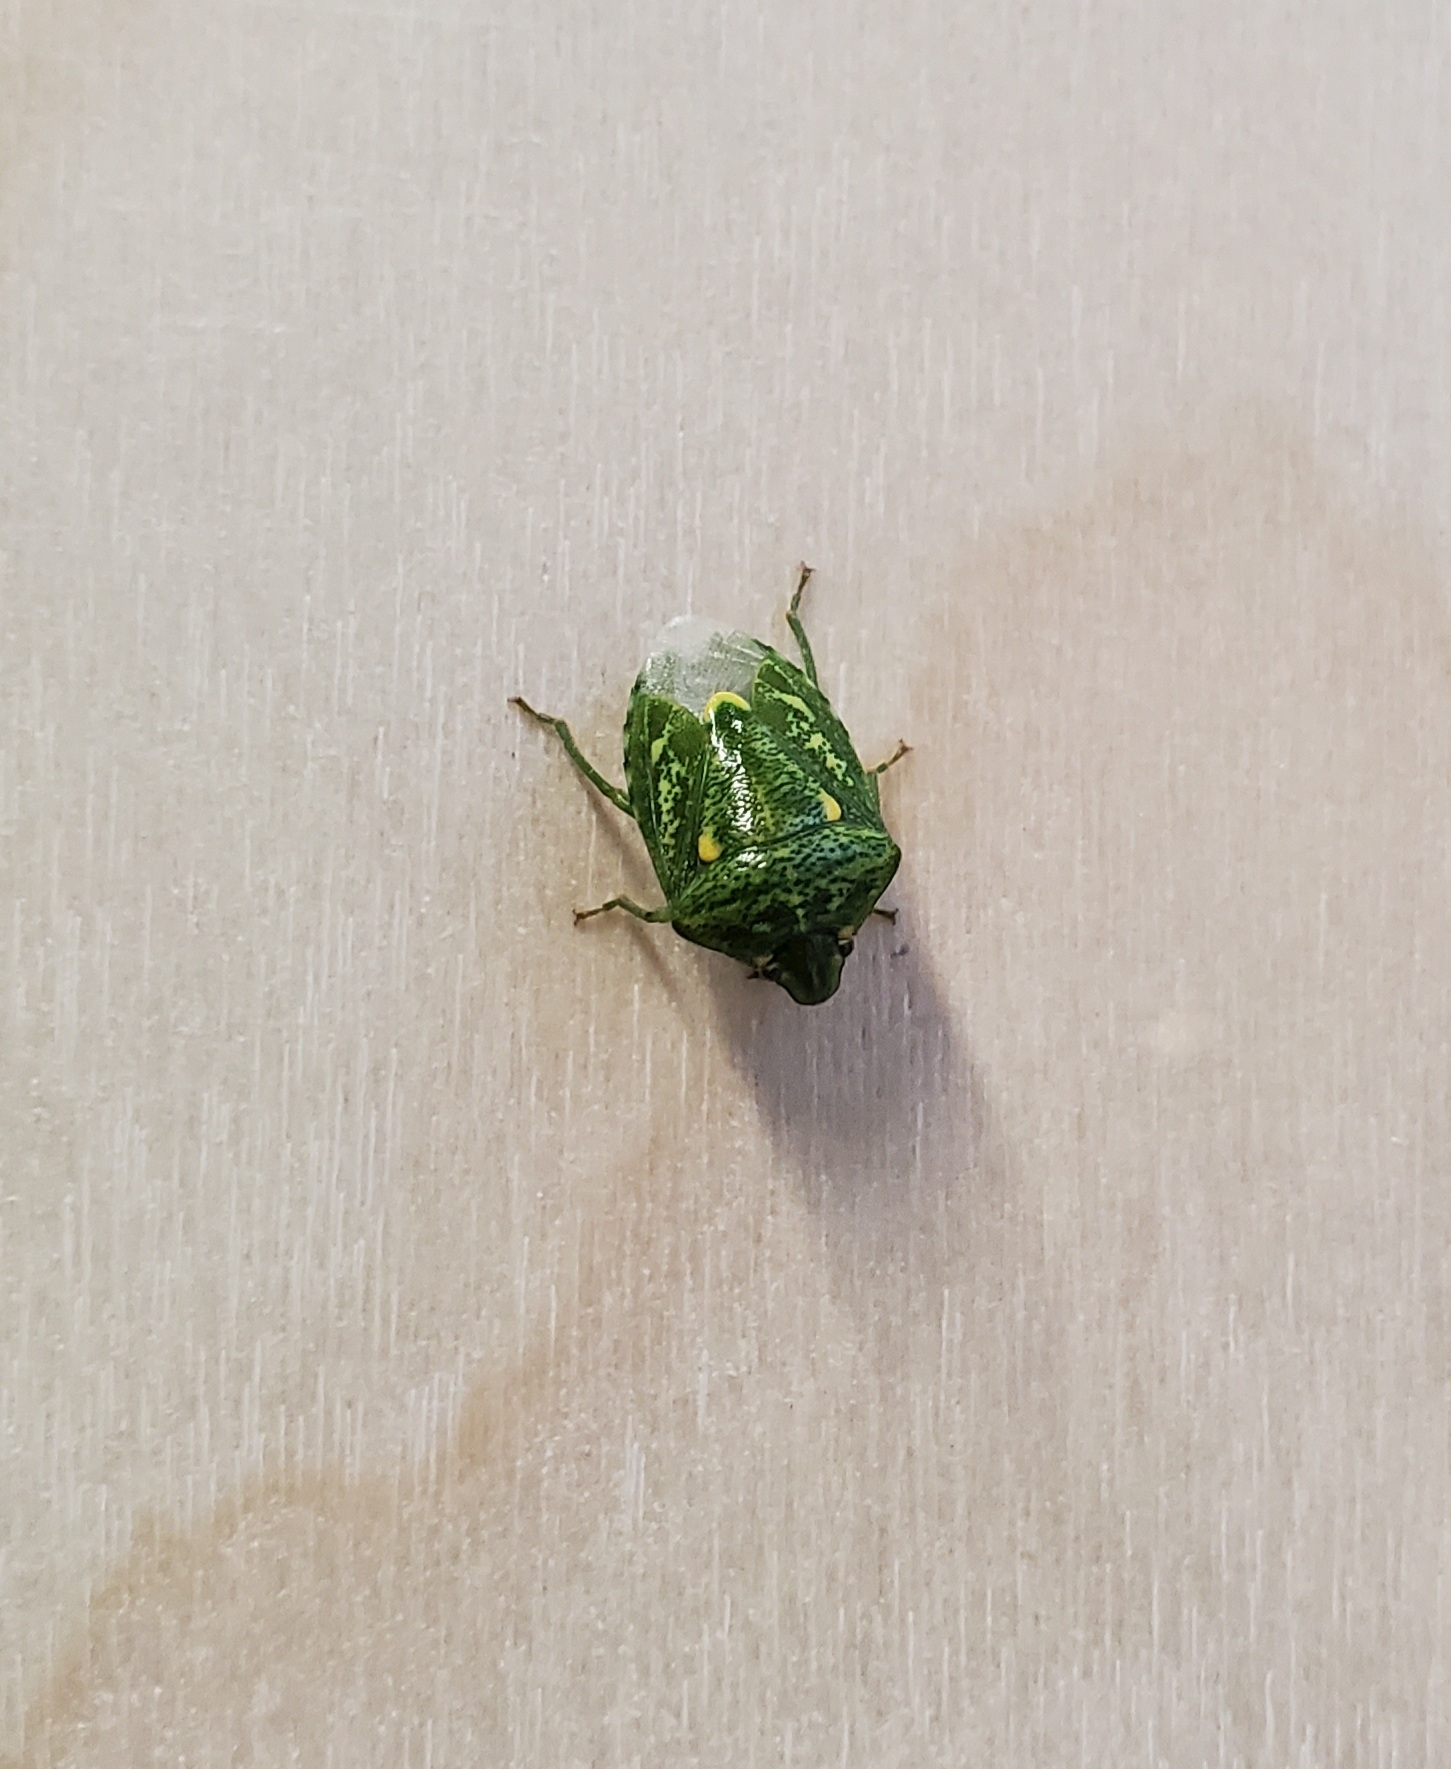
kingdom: Animalia
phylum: Arthropoda
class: Insecta
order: Hemiptera
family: Pentatomidae
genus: Banasa
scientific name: Banasa euchlora
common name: Cedar berry bug
